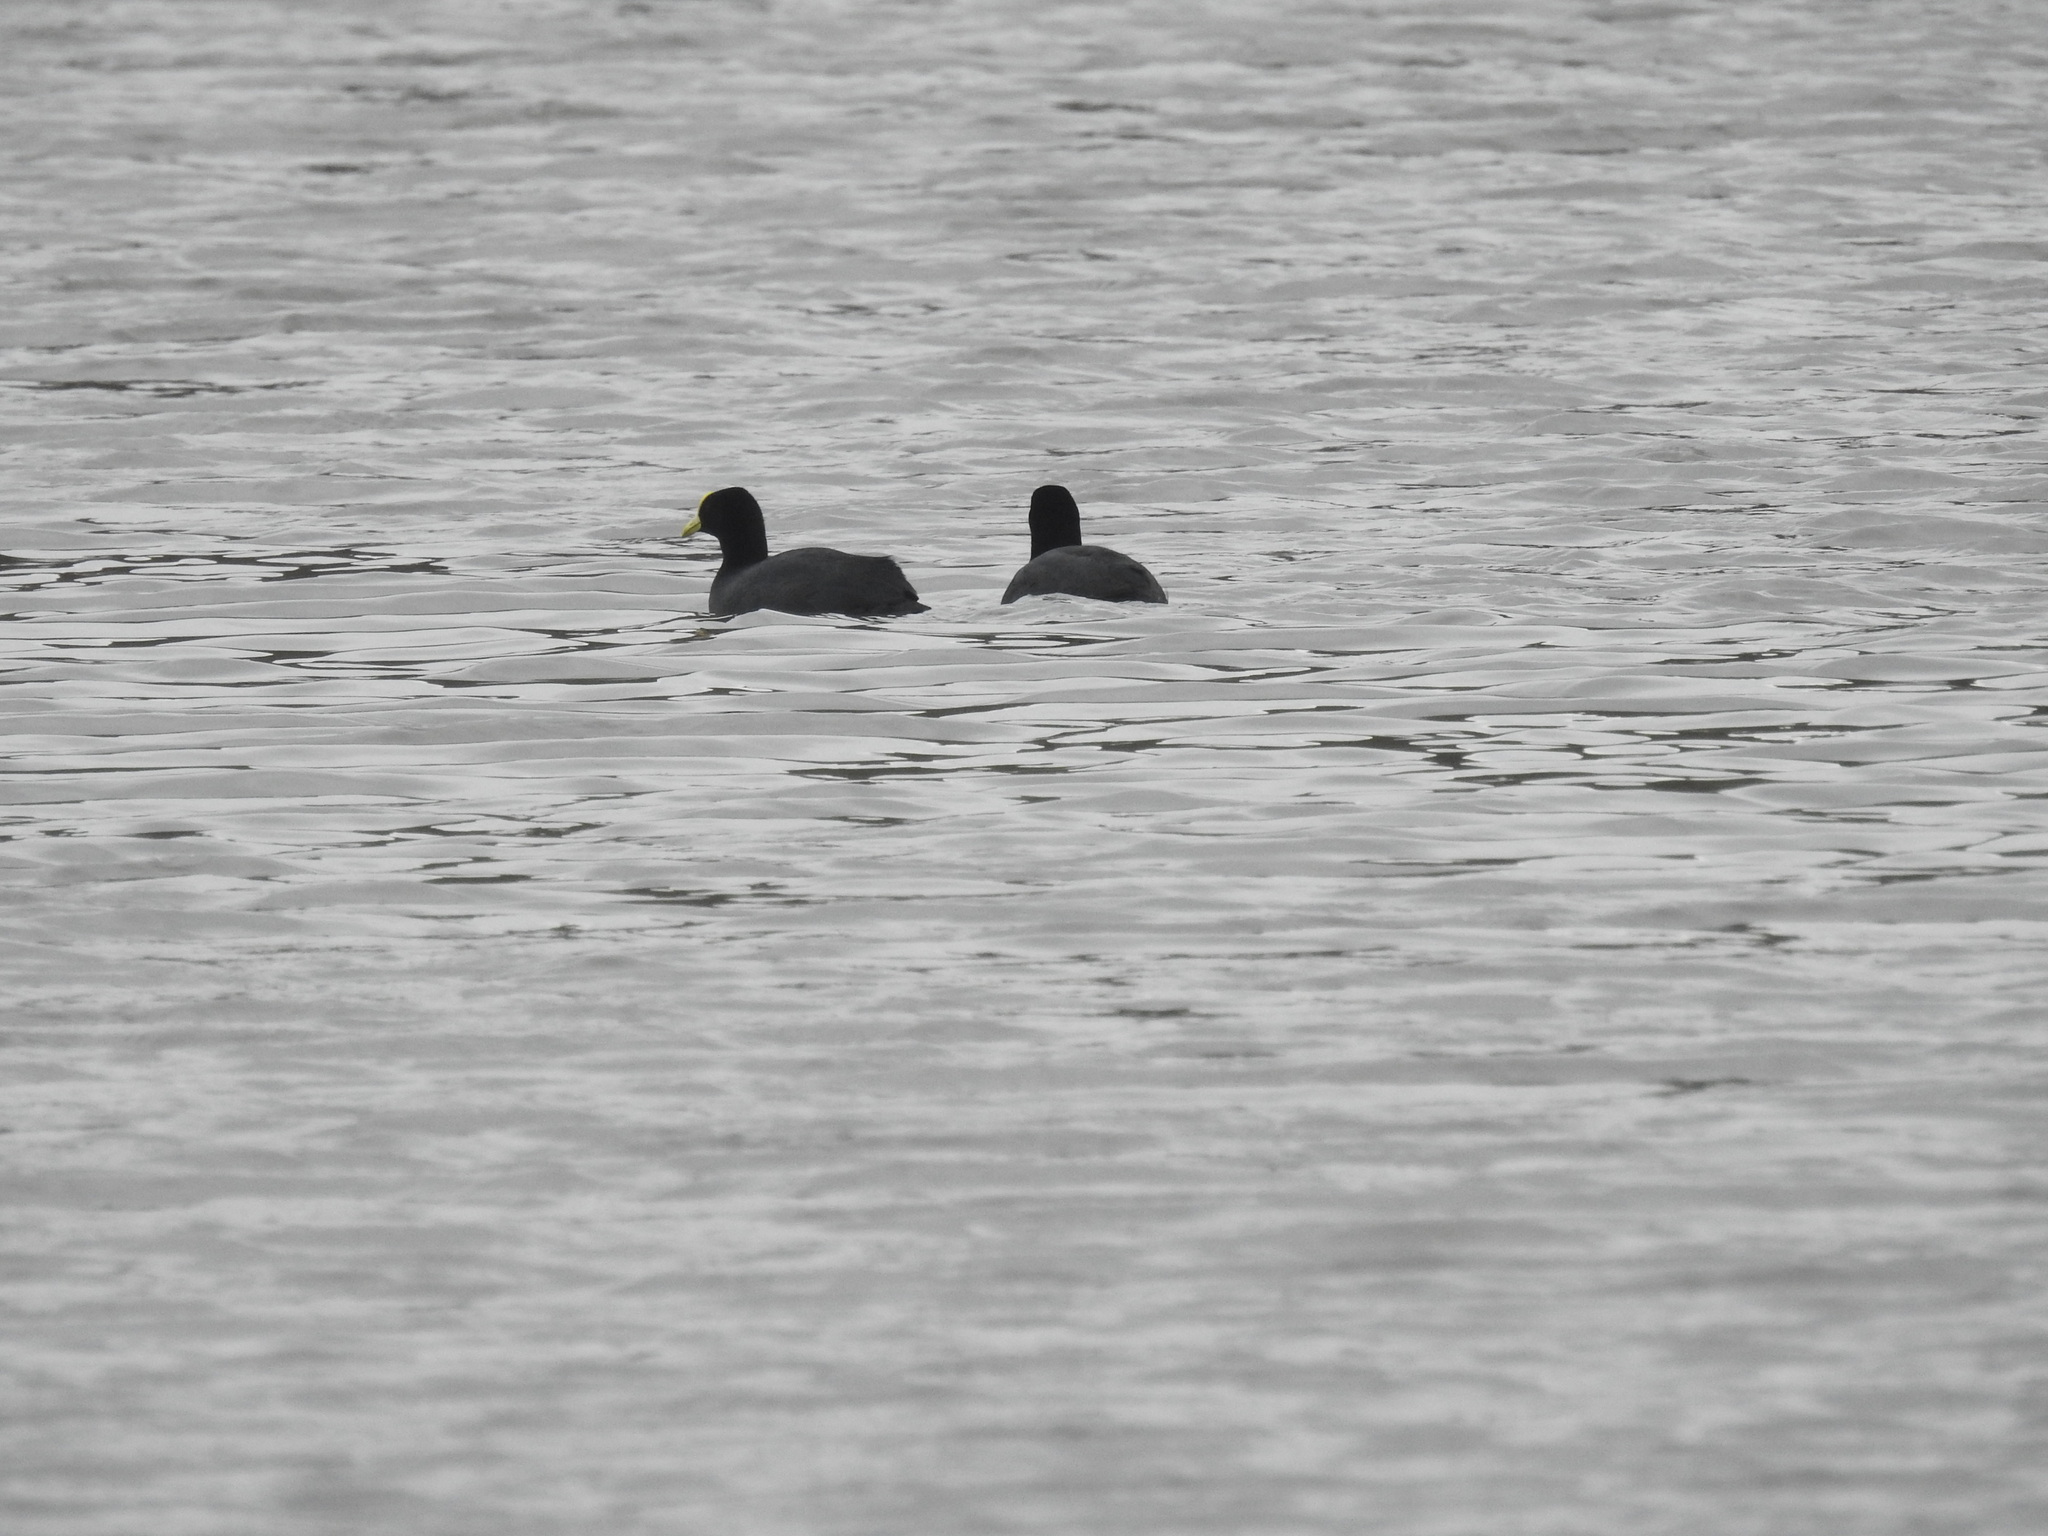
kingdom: Animalia
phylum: Chordata
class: Aves
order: Gruiformes
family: Rallidae
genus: Fulica
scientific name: Fulica leucoptera
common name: White-winged coot
